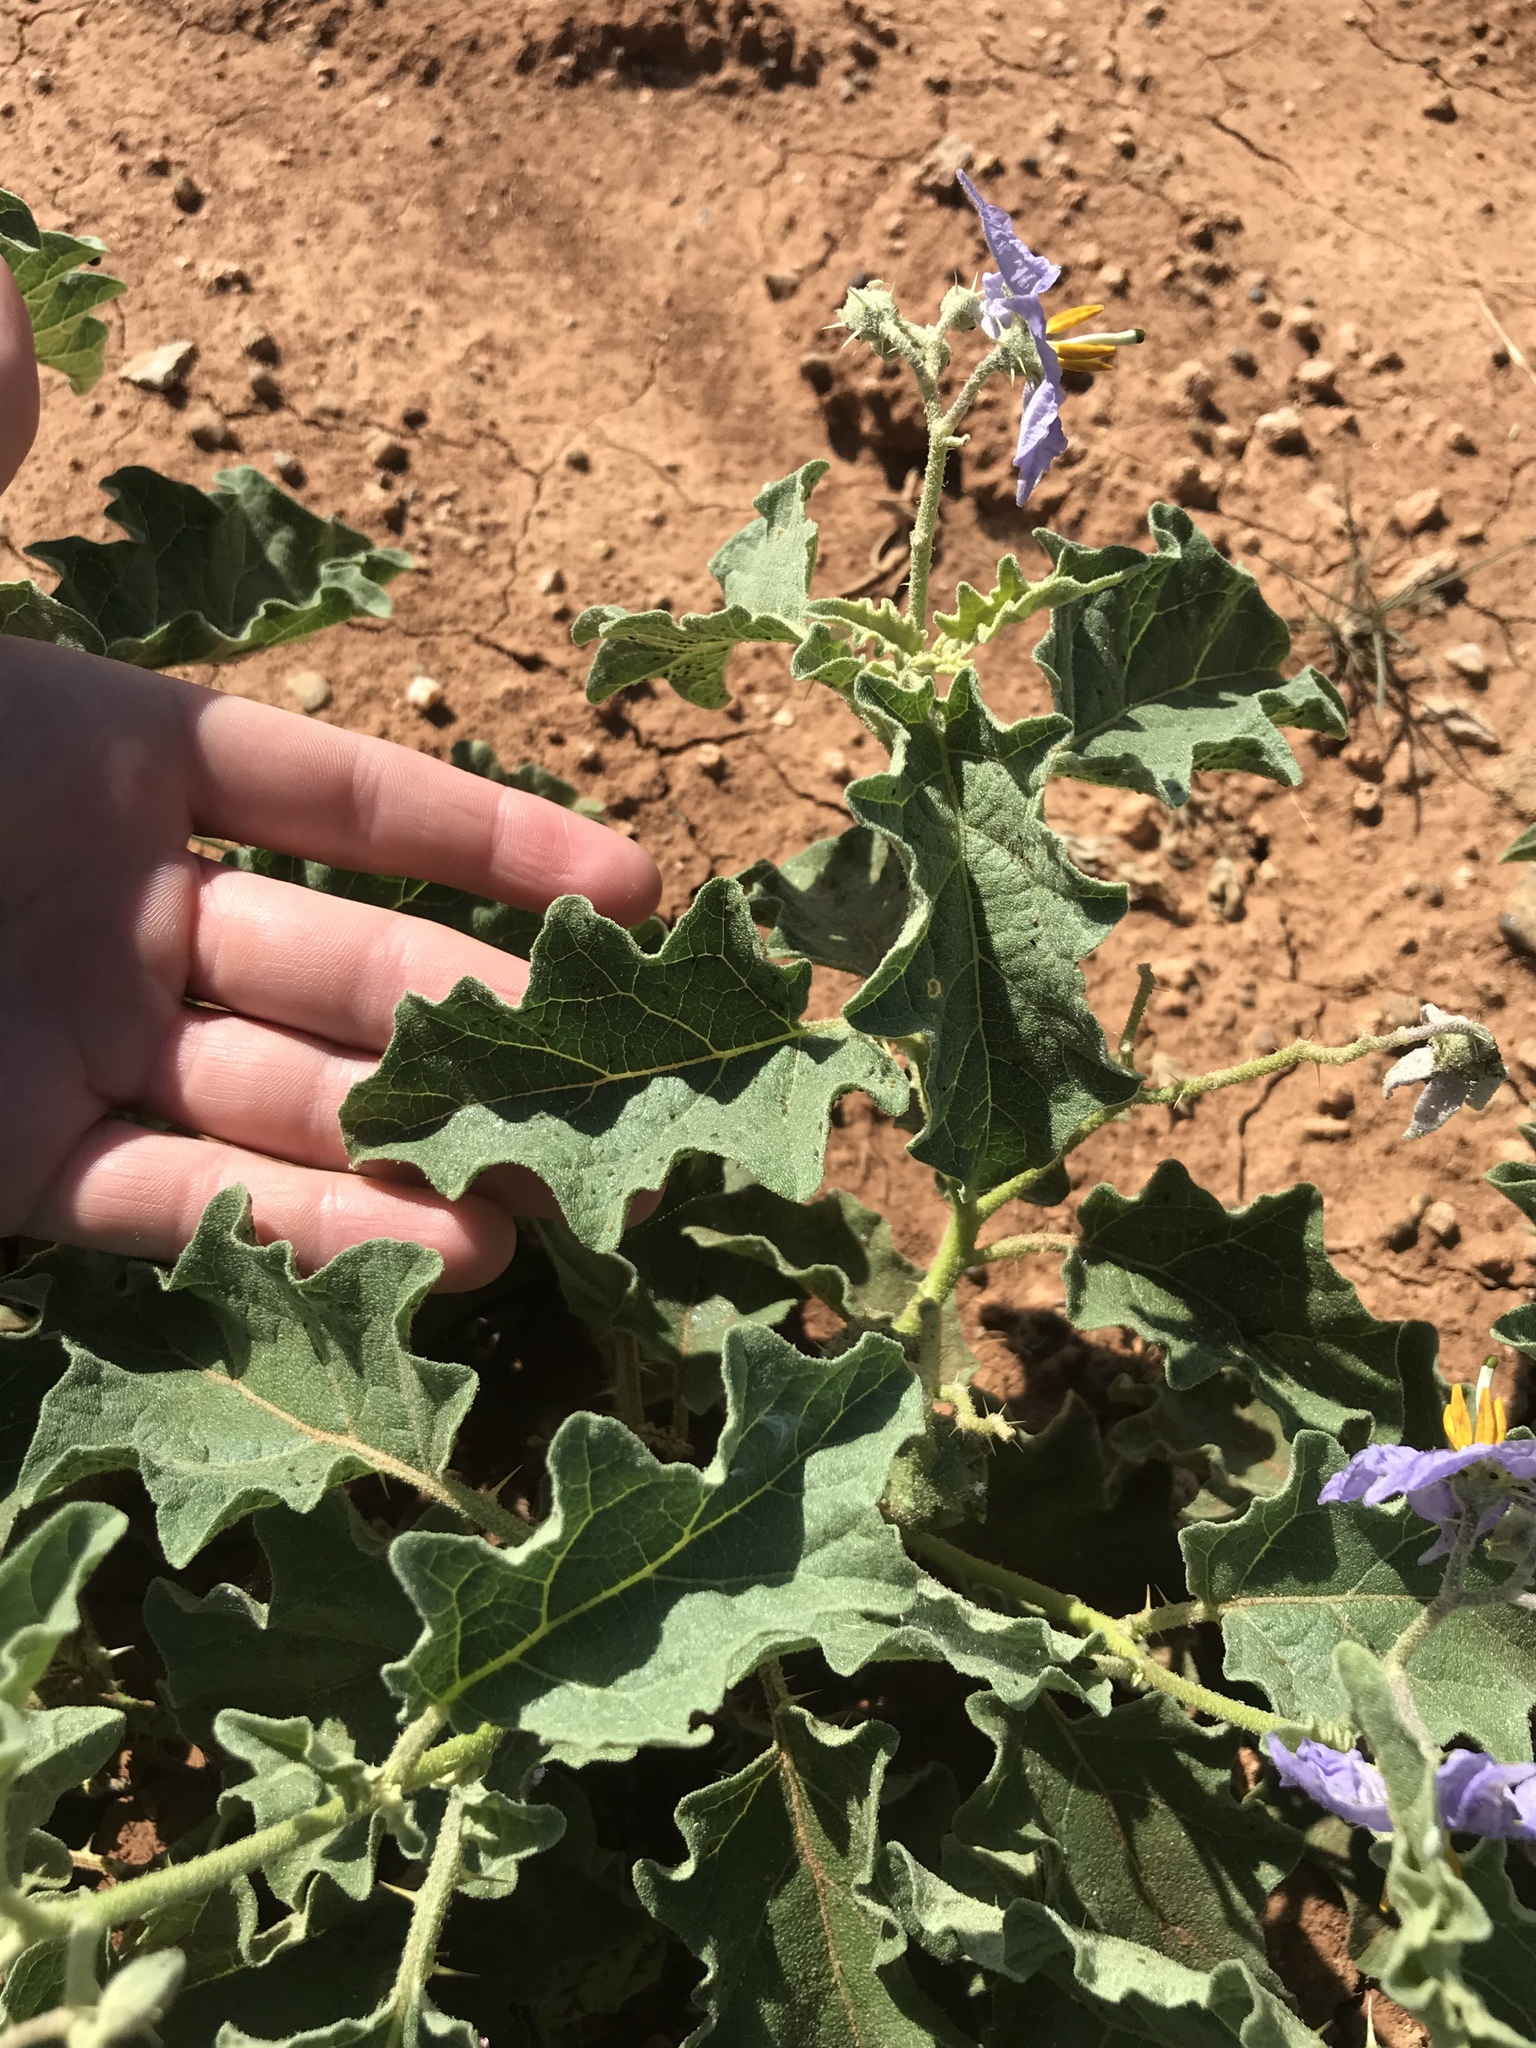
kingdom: Plantae
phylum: Tracheophyta
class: Magnoliopsida
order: Solanales
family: Solanaceae
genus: Solanum
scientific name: Solanum dimidiatum
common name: Carolina horse-nettle
